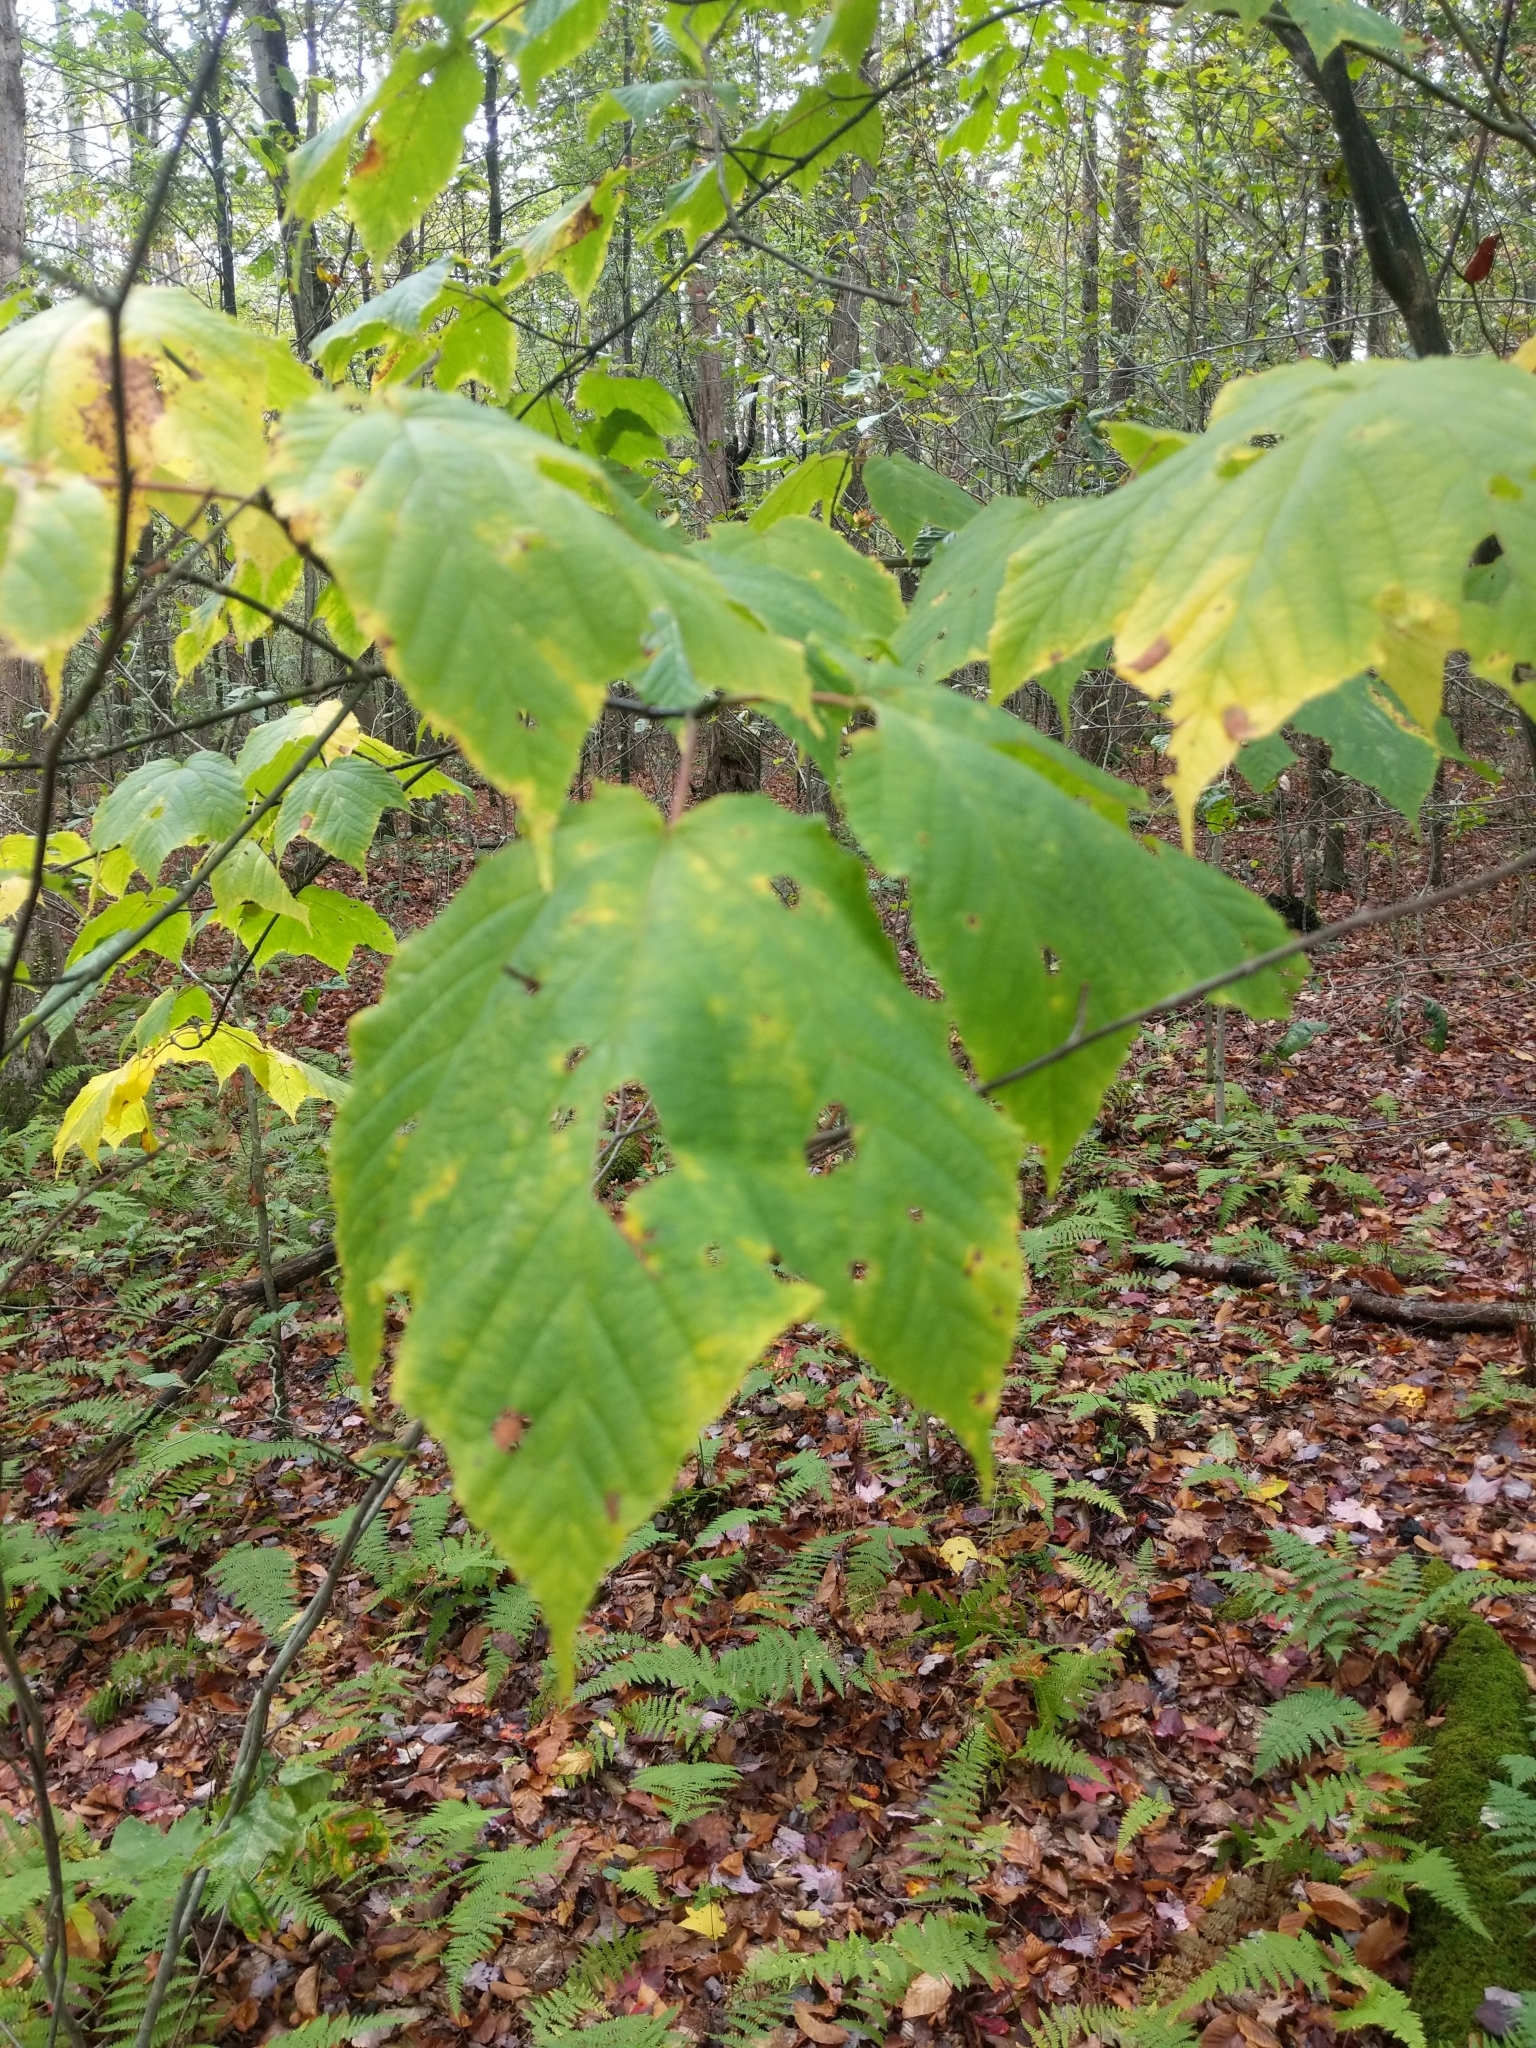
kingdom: Plantae
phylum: Tracheophyta
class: Magnoliopsida
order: Sapindales
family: Sapindaceae
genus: Acer
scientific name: Acer pensylvanicum
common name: Moosewood
